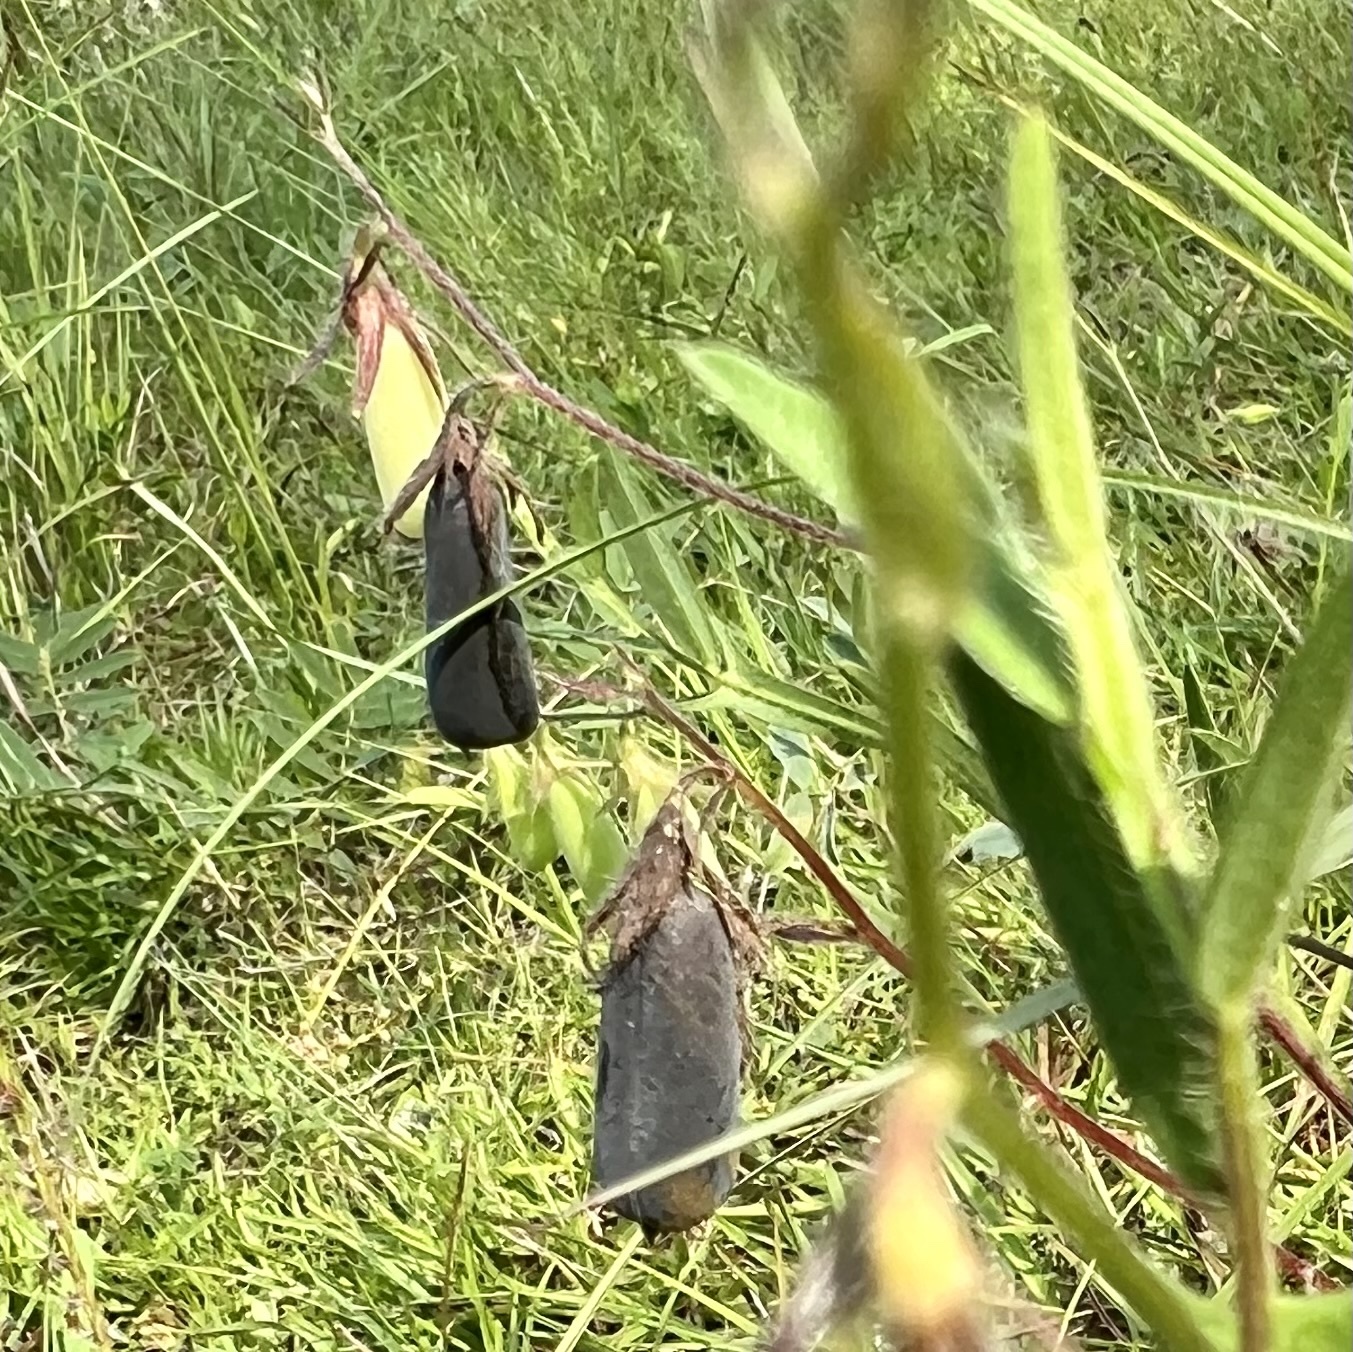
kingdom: Plantae
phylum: Tracheophyta
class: Magnoliopsida
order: Fabales
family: Fabaceae
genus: Crotalaria
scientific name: Crotalaria sagittalis
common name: Arrowhead rattlebox
